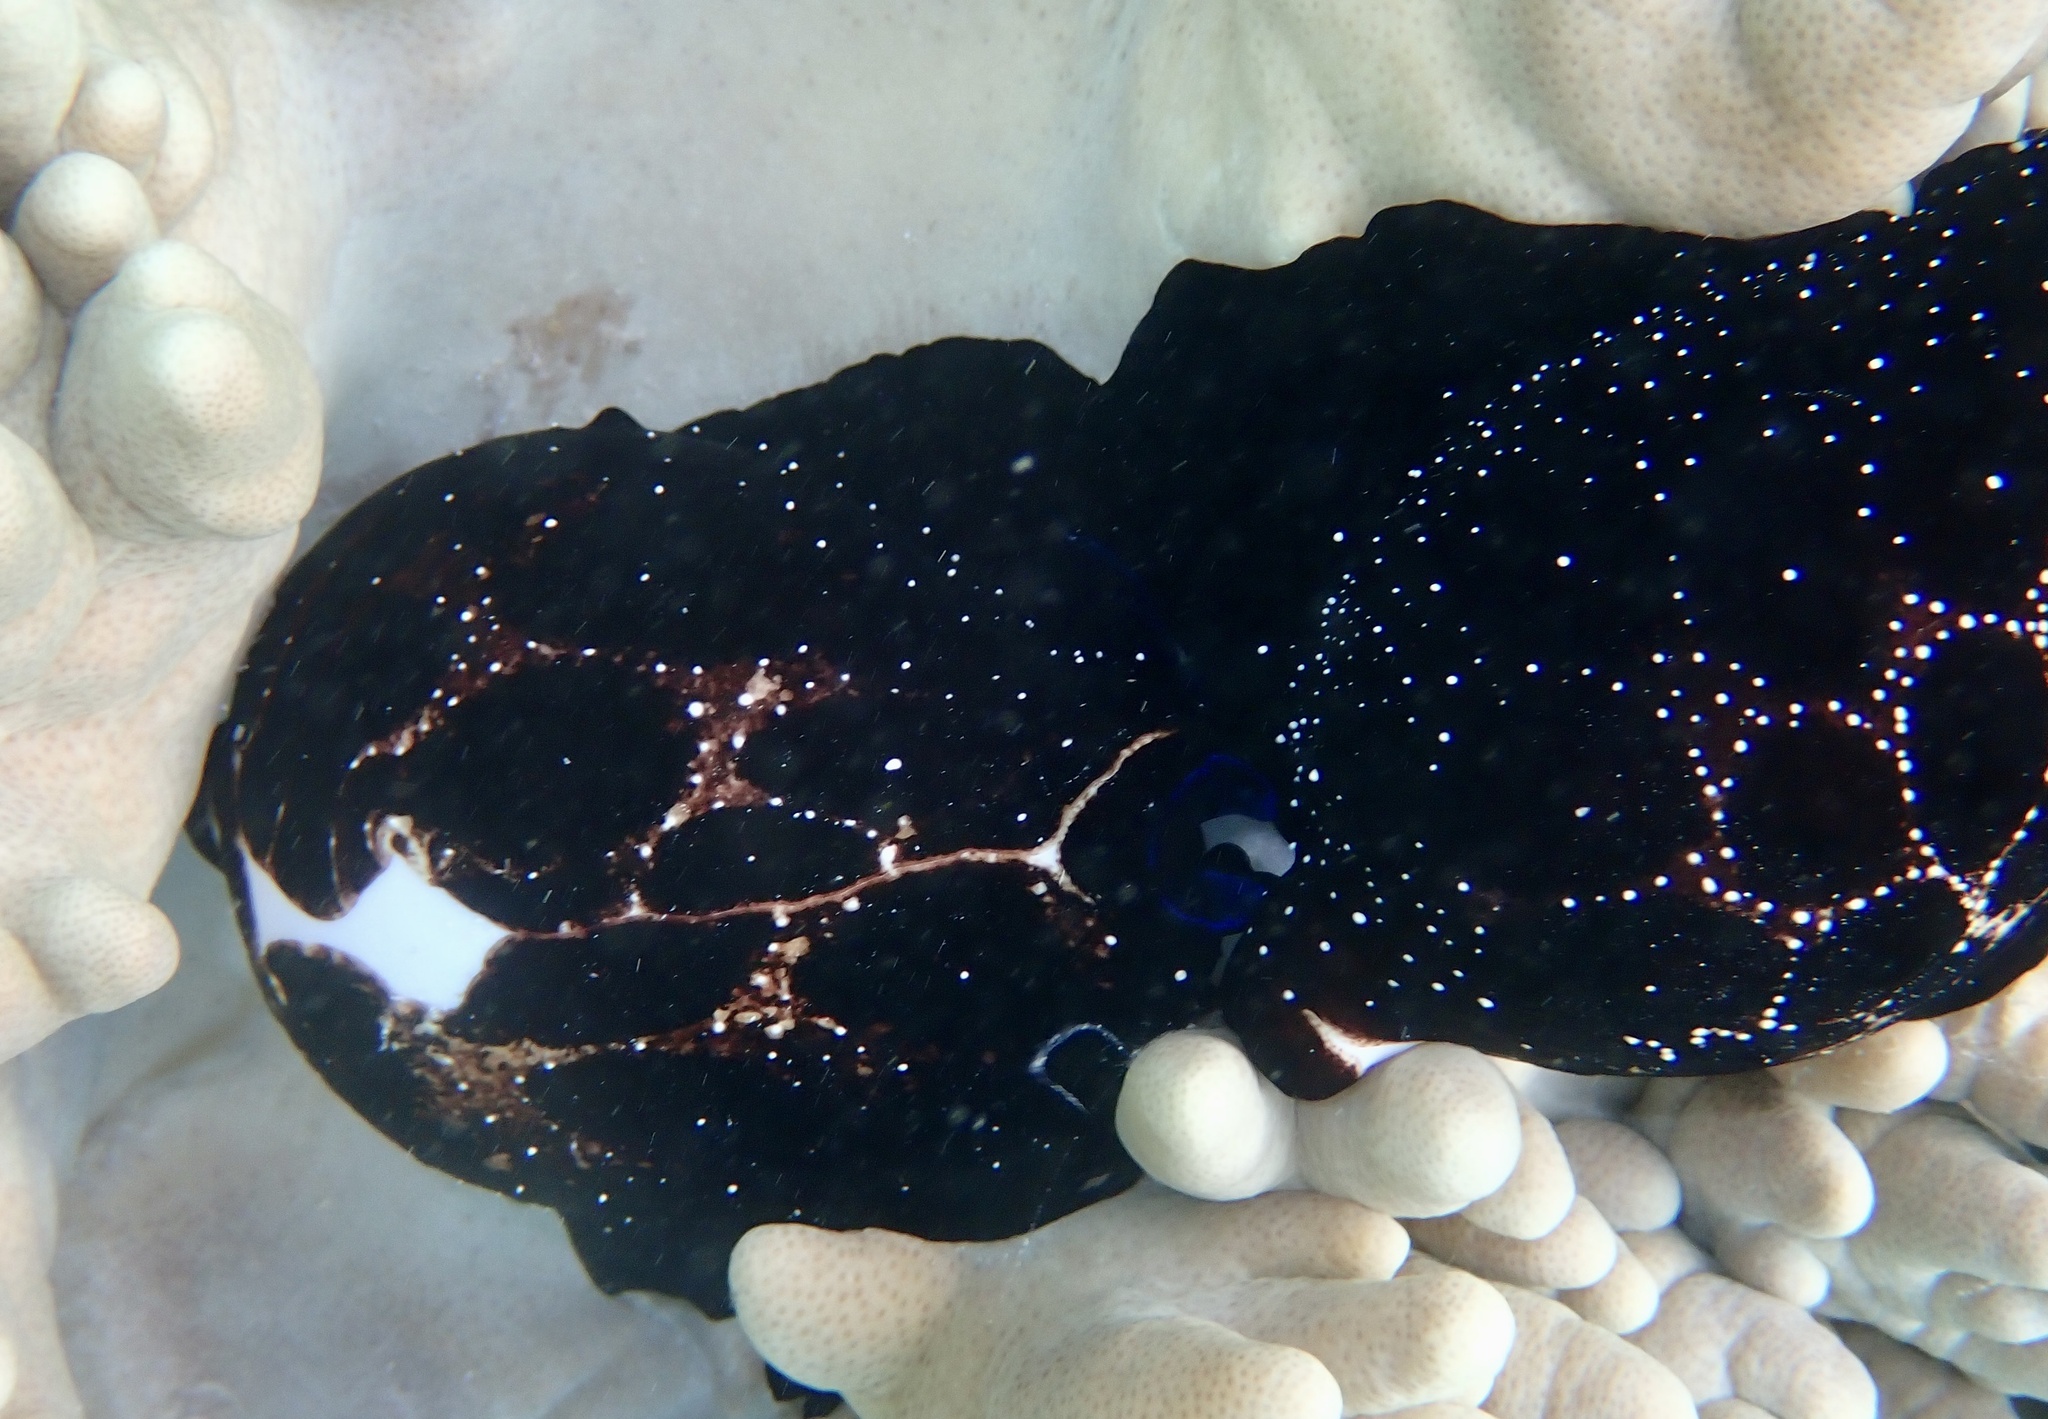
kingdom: Animalia
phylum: Mollusca
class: Gastropoda
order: Littorinimorpha
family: Ovulidae
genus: Ovula
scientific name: Ovula ovum
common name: Common egg cowrie
